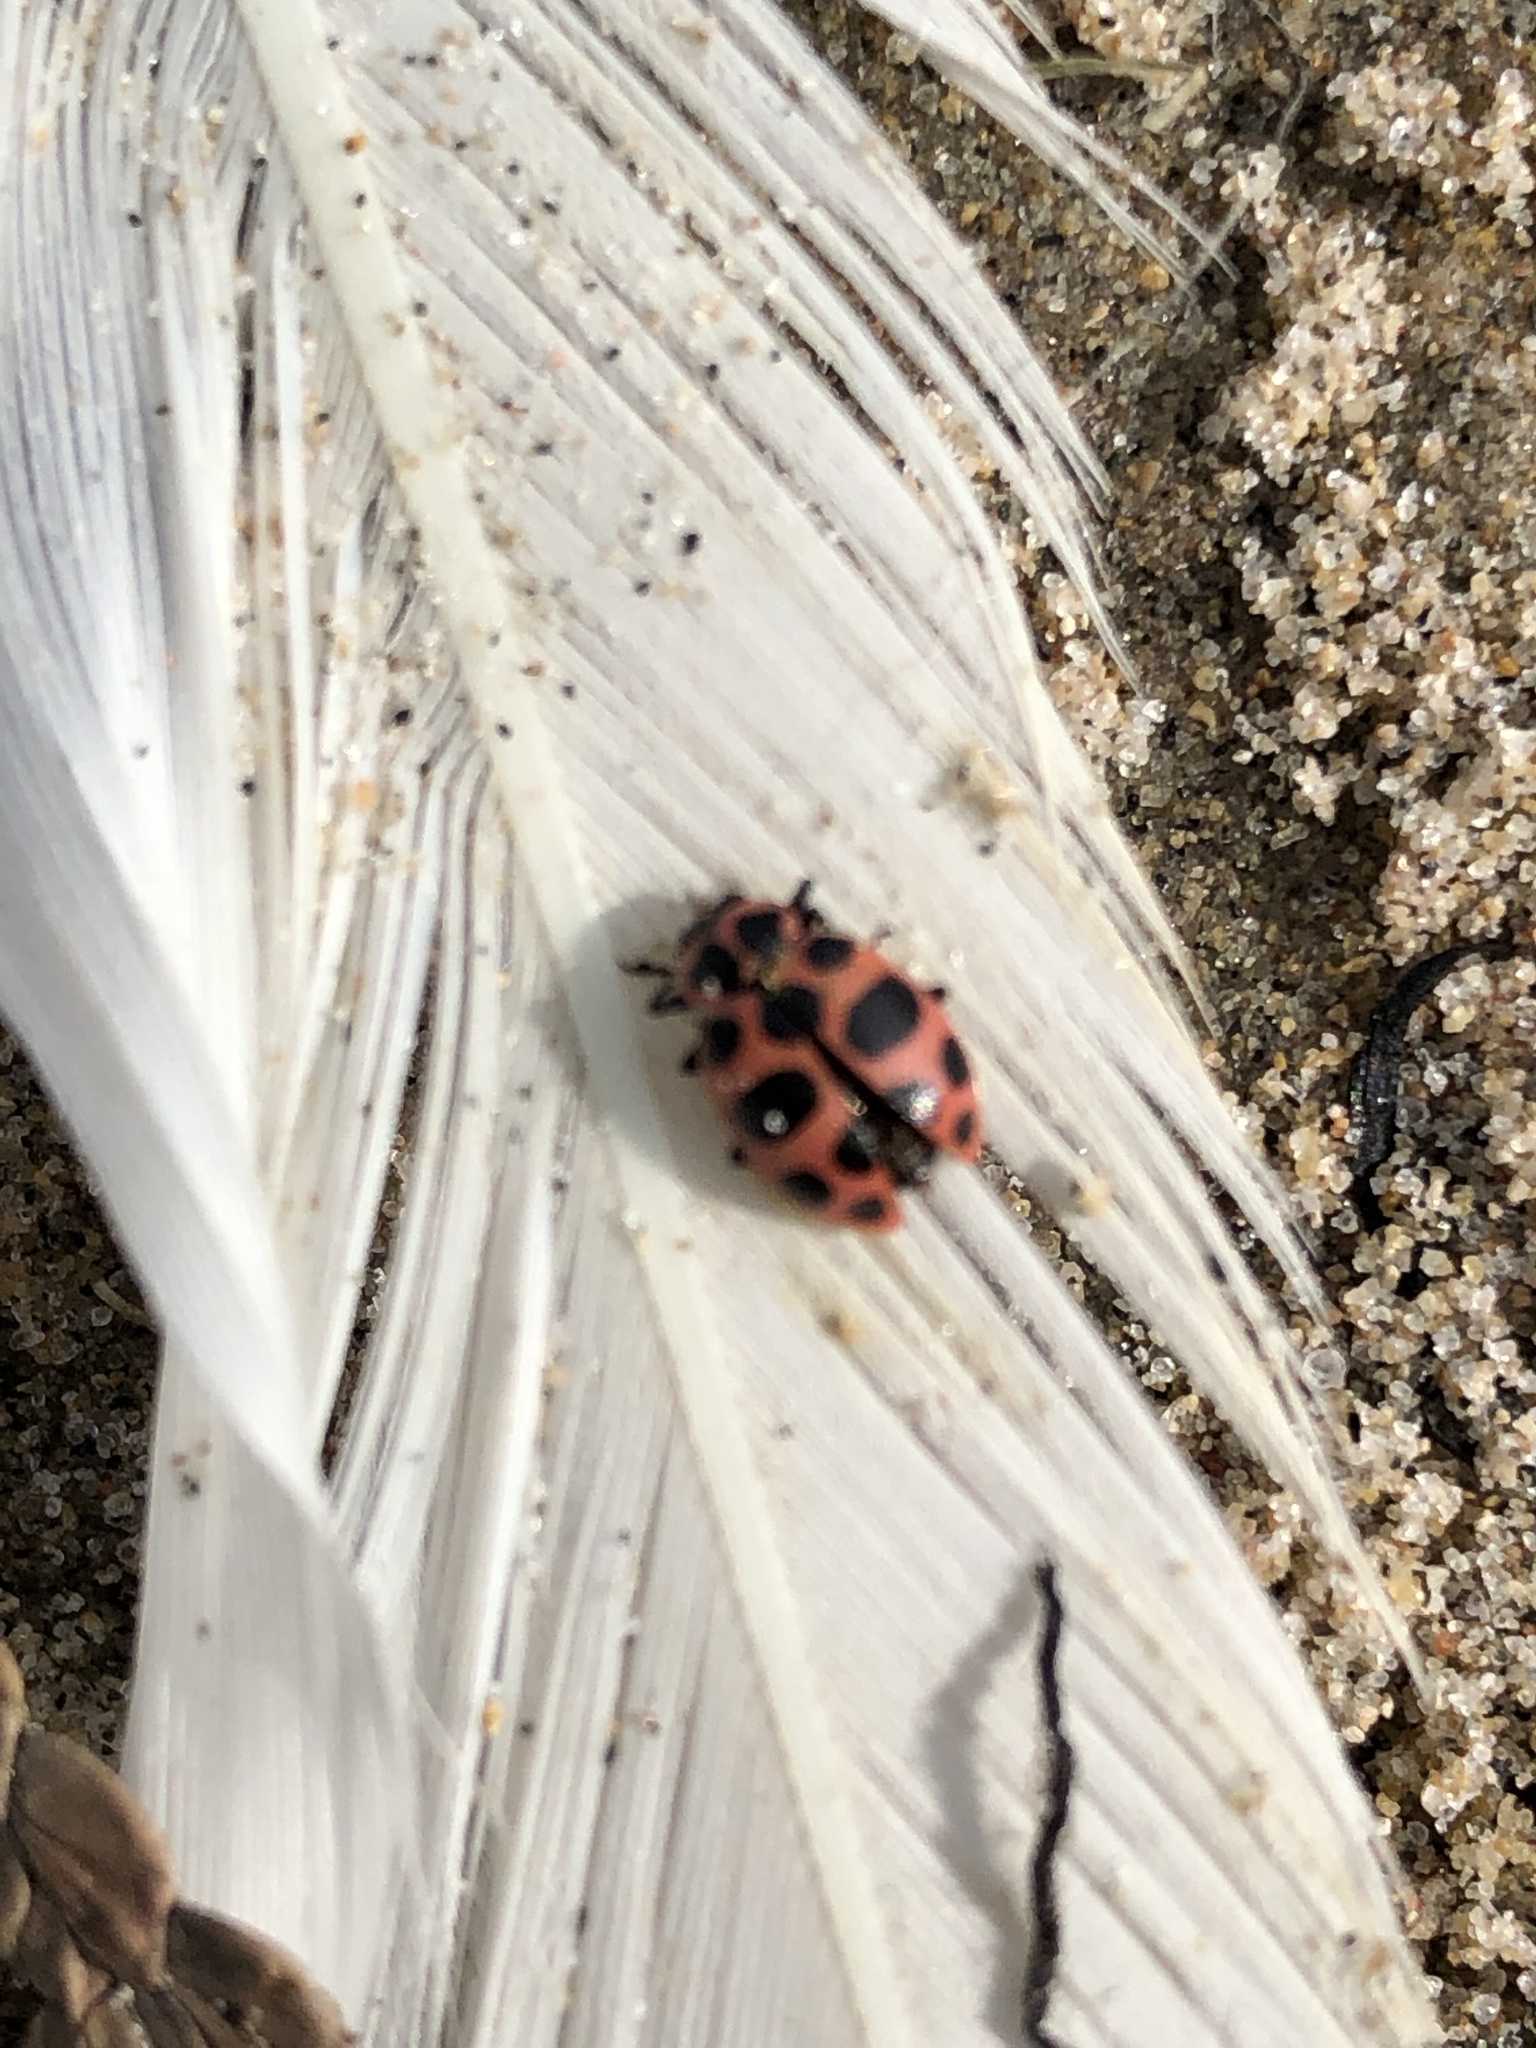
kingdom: Animalia
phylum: Arthropoda
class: Insecta
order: Coleoptera
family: Coccinellidae
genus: Coleomegilla
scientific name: Coleomegilla maculata
